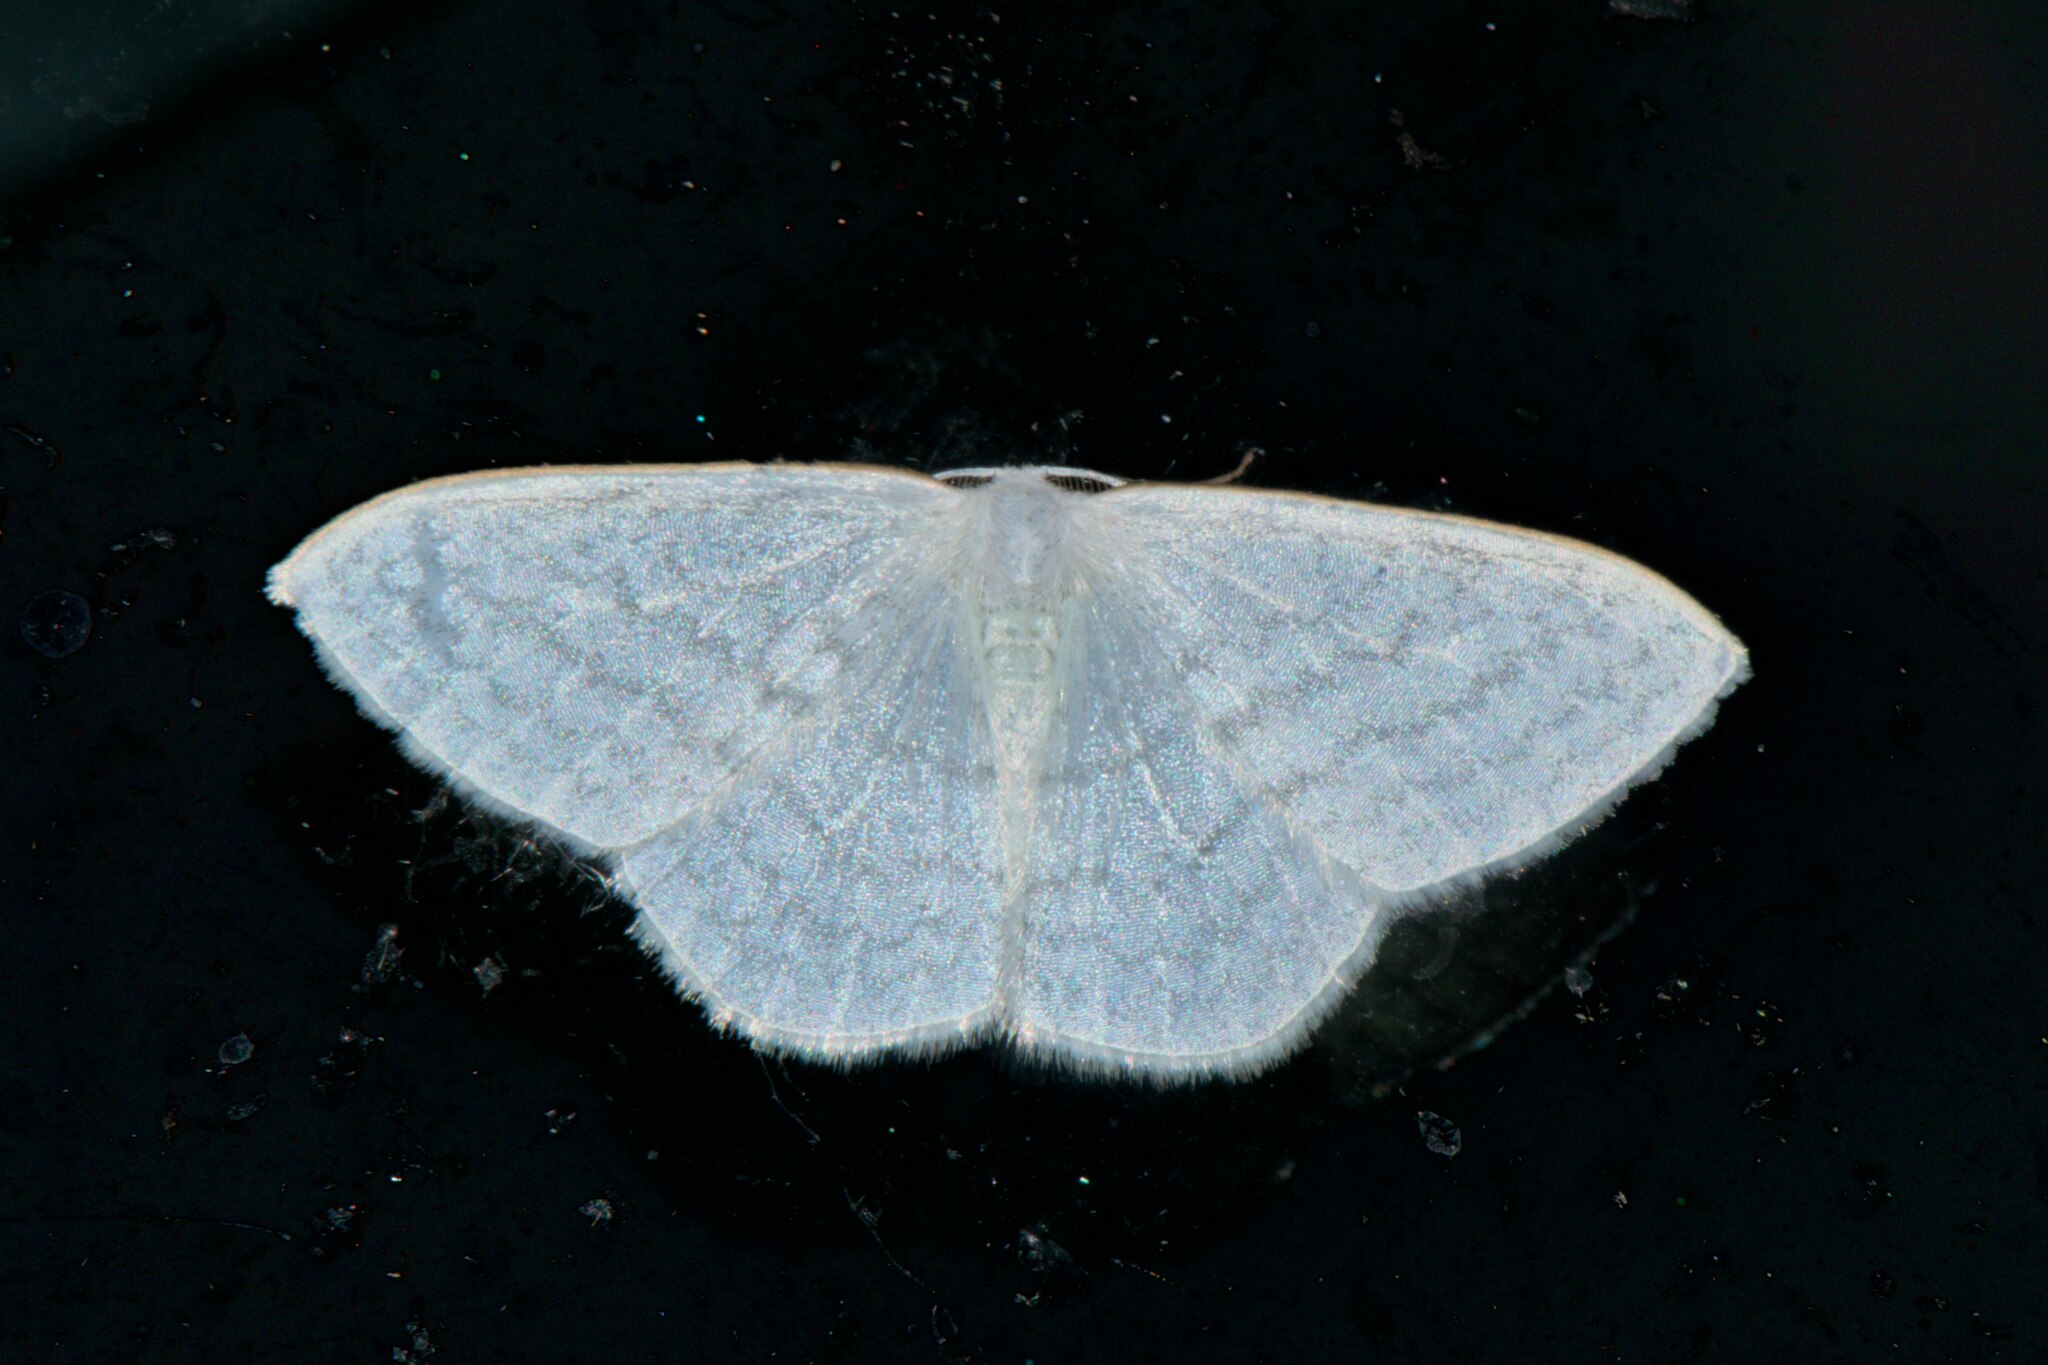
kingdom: Animalia
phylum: Arthropoda
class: Insecta
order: Lepidoptera
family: Drepanidae
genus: Ditrigona
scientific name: Ditrigona quinaria
